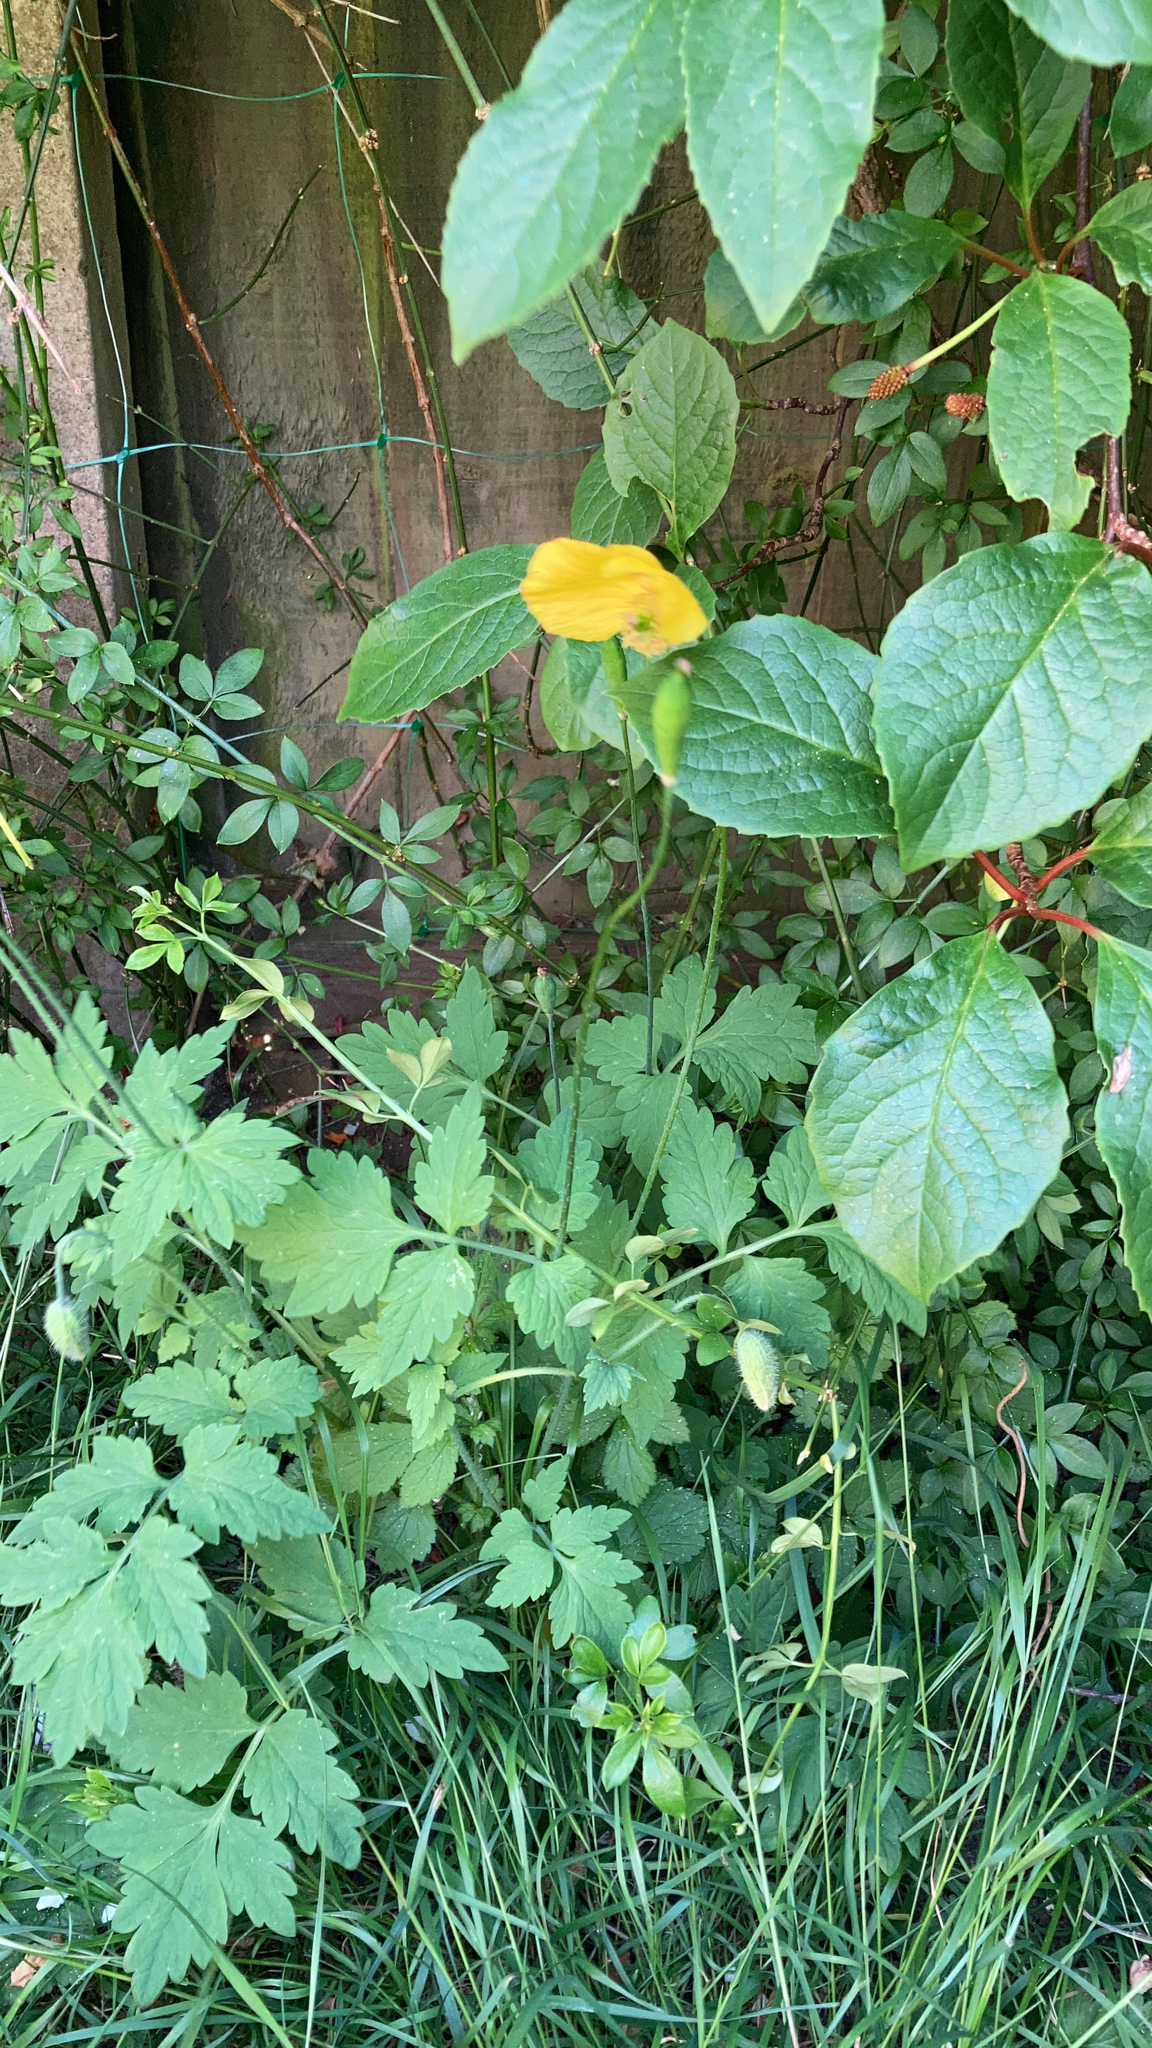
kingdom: Plantae
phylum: Tracheophyta
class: Magnoliopsida
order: Ranunculales
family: Papaveraceae
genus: Papaver
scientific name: Papaver cambricum
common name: Poppy
